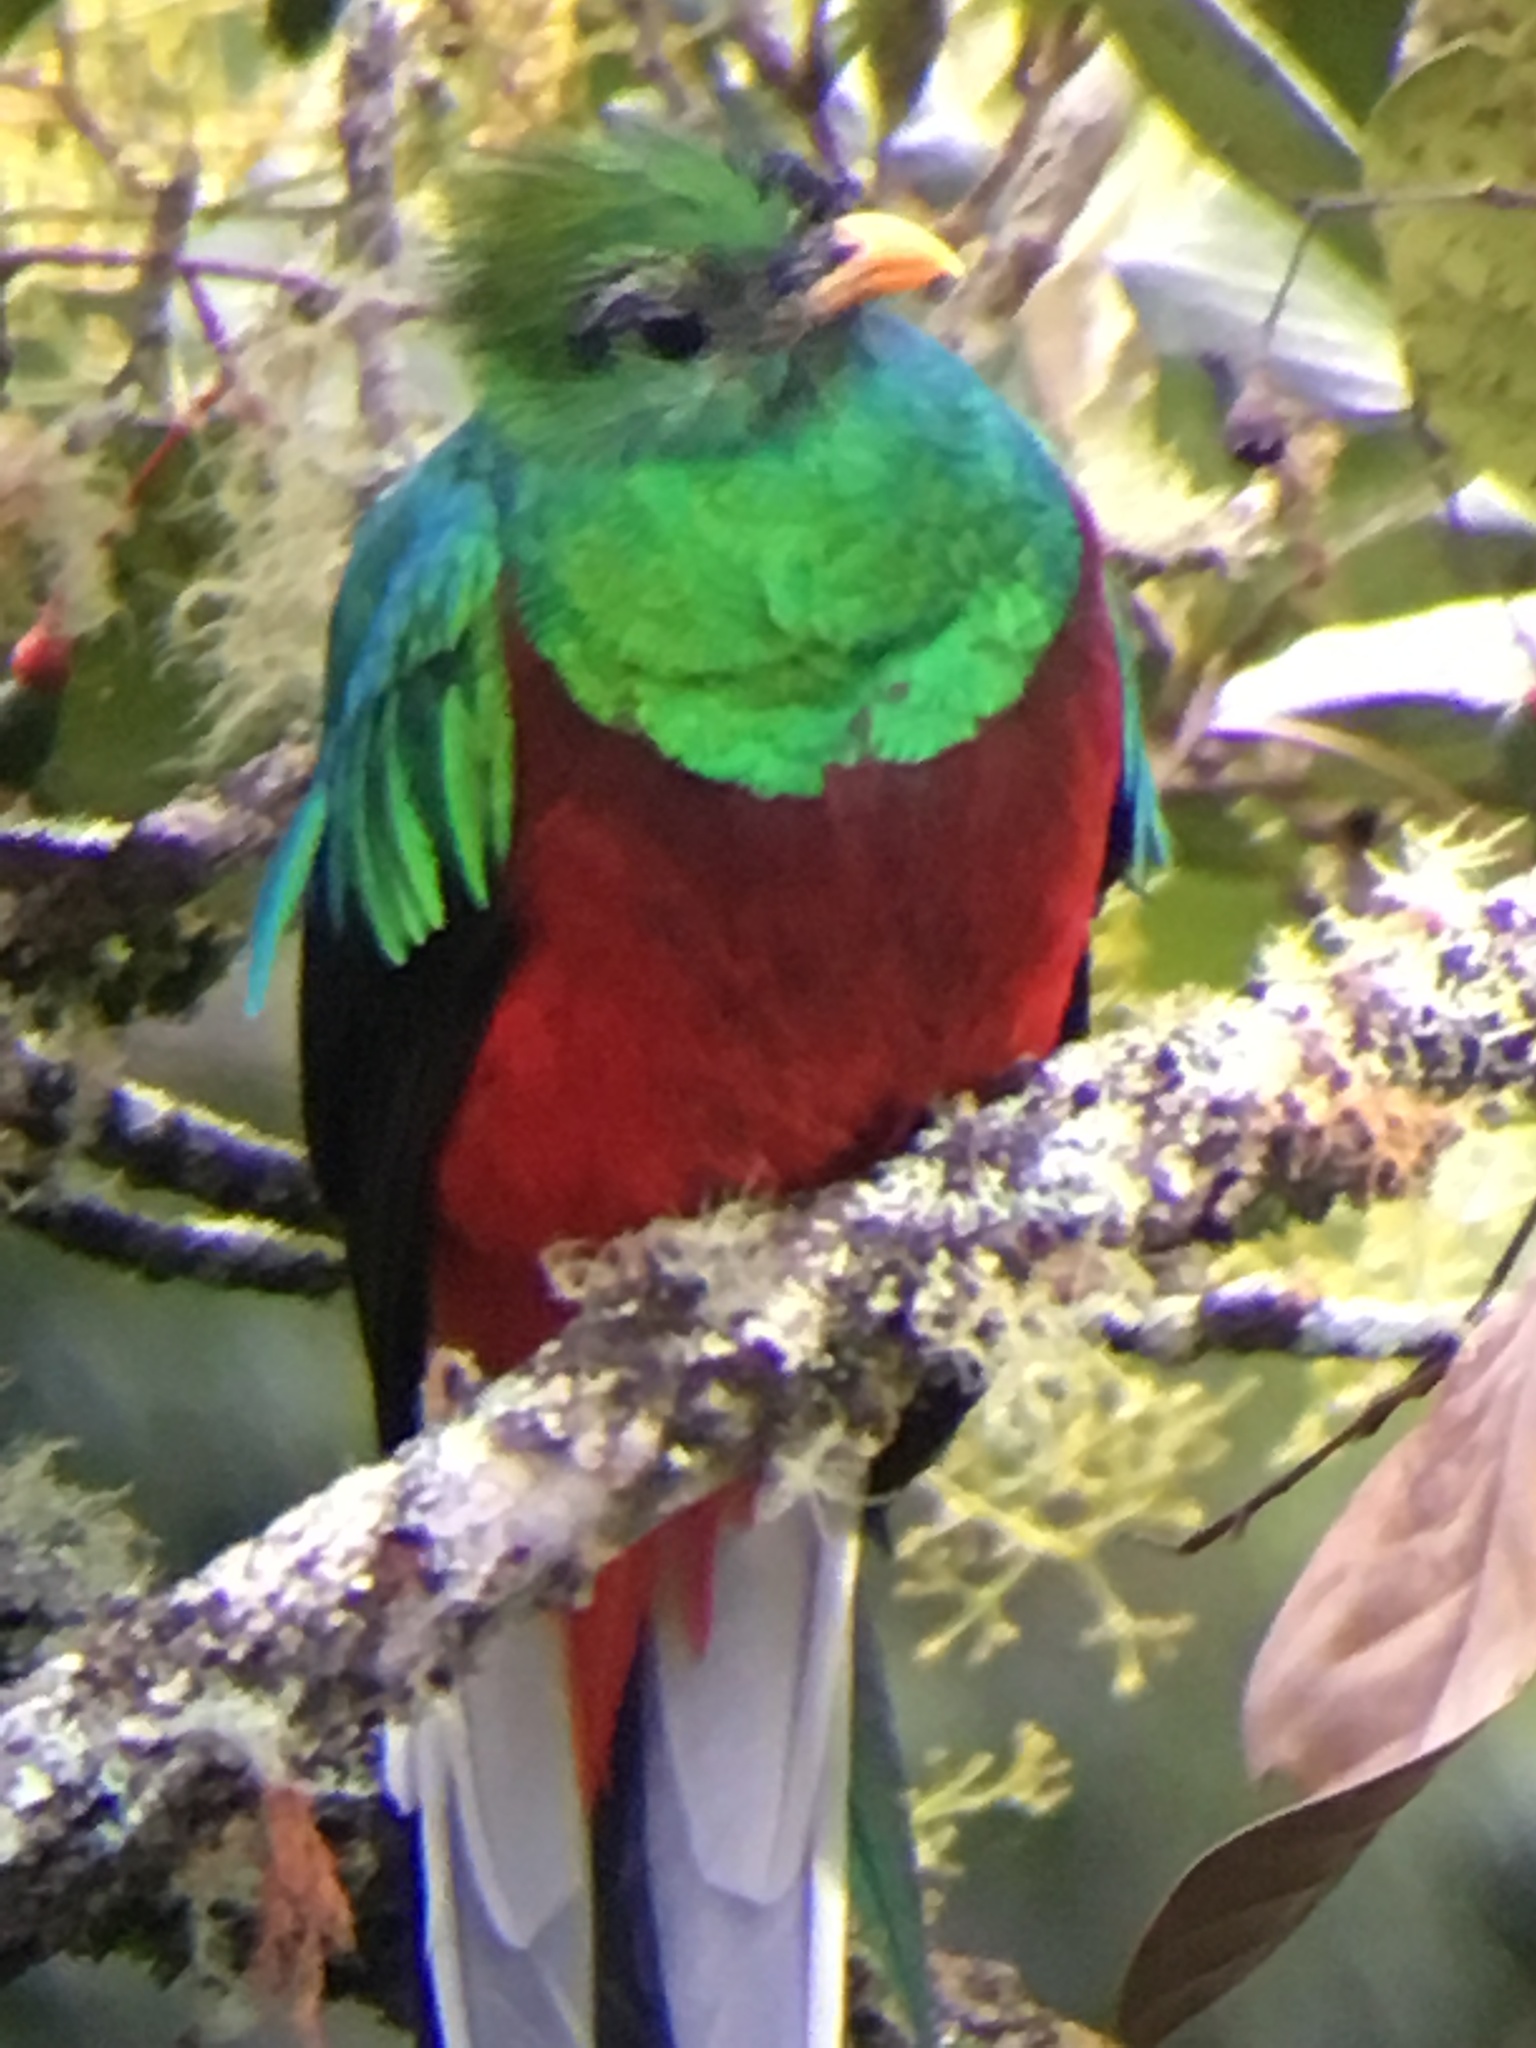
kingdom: Animalia
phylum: Chordata
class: Aves
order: Trogoniformes
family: Trogonidae
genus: Pharomachrus
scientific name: Pharomachrus mocinno
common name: Resplendent quetzal
